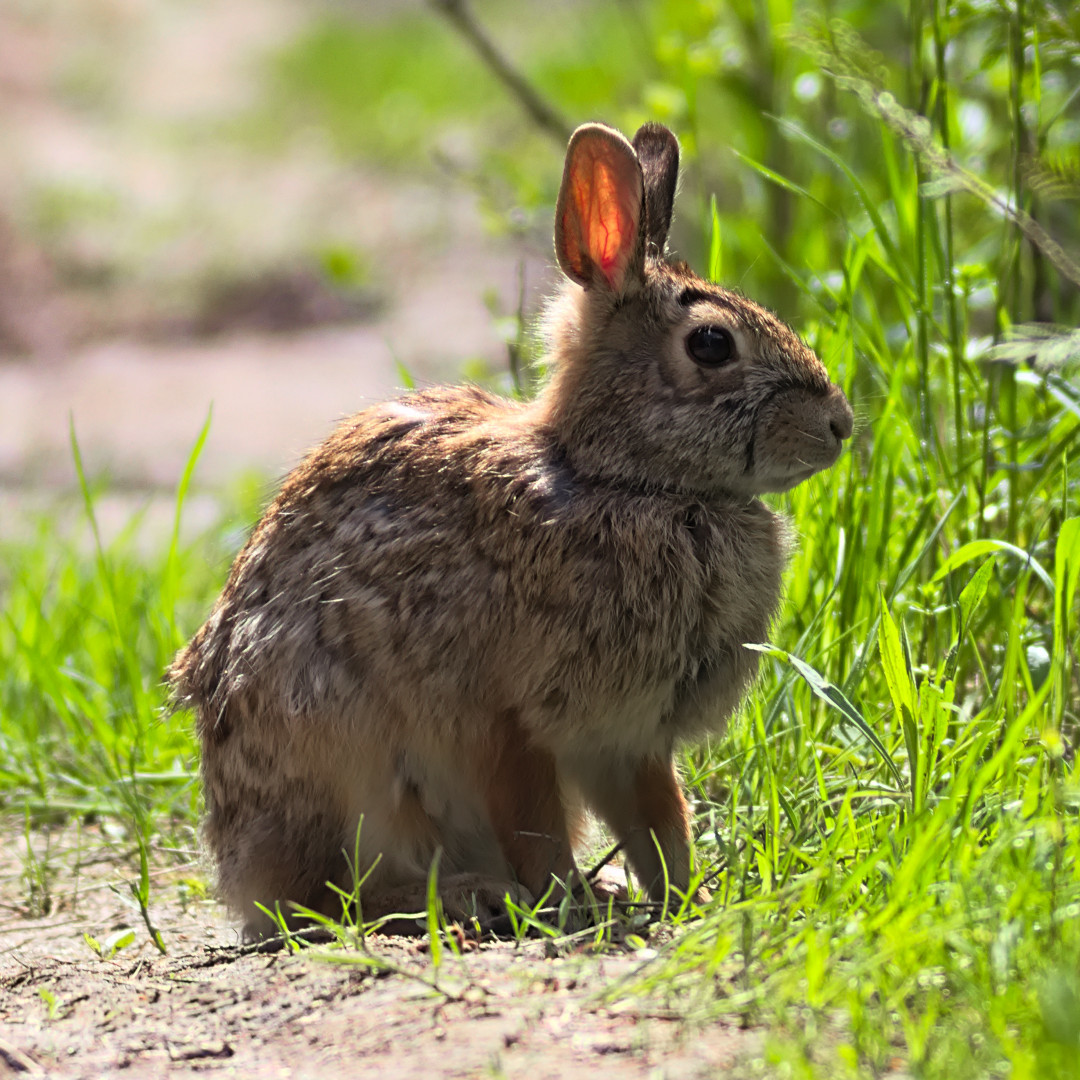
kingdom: Animalia
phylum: Chordata
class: Mammalia
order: Lagomorpha
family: Leporidae
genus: Sylvilagus
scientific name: Sylvilagus floridanus
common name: Eastern cottontail
